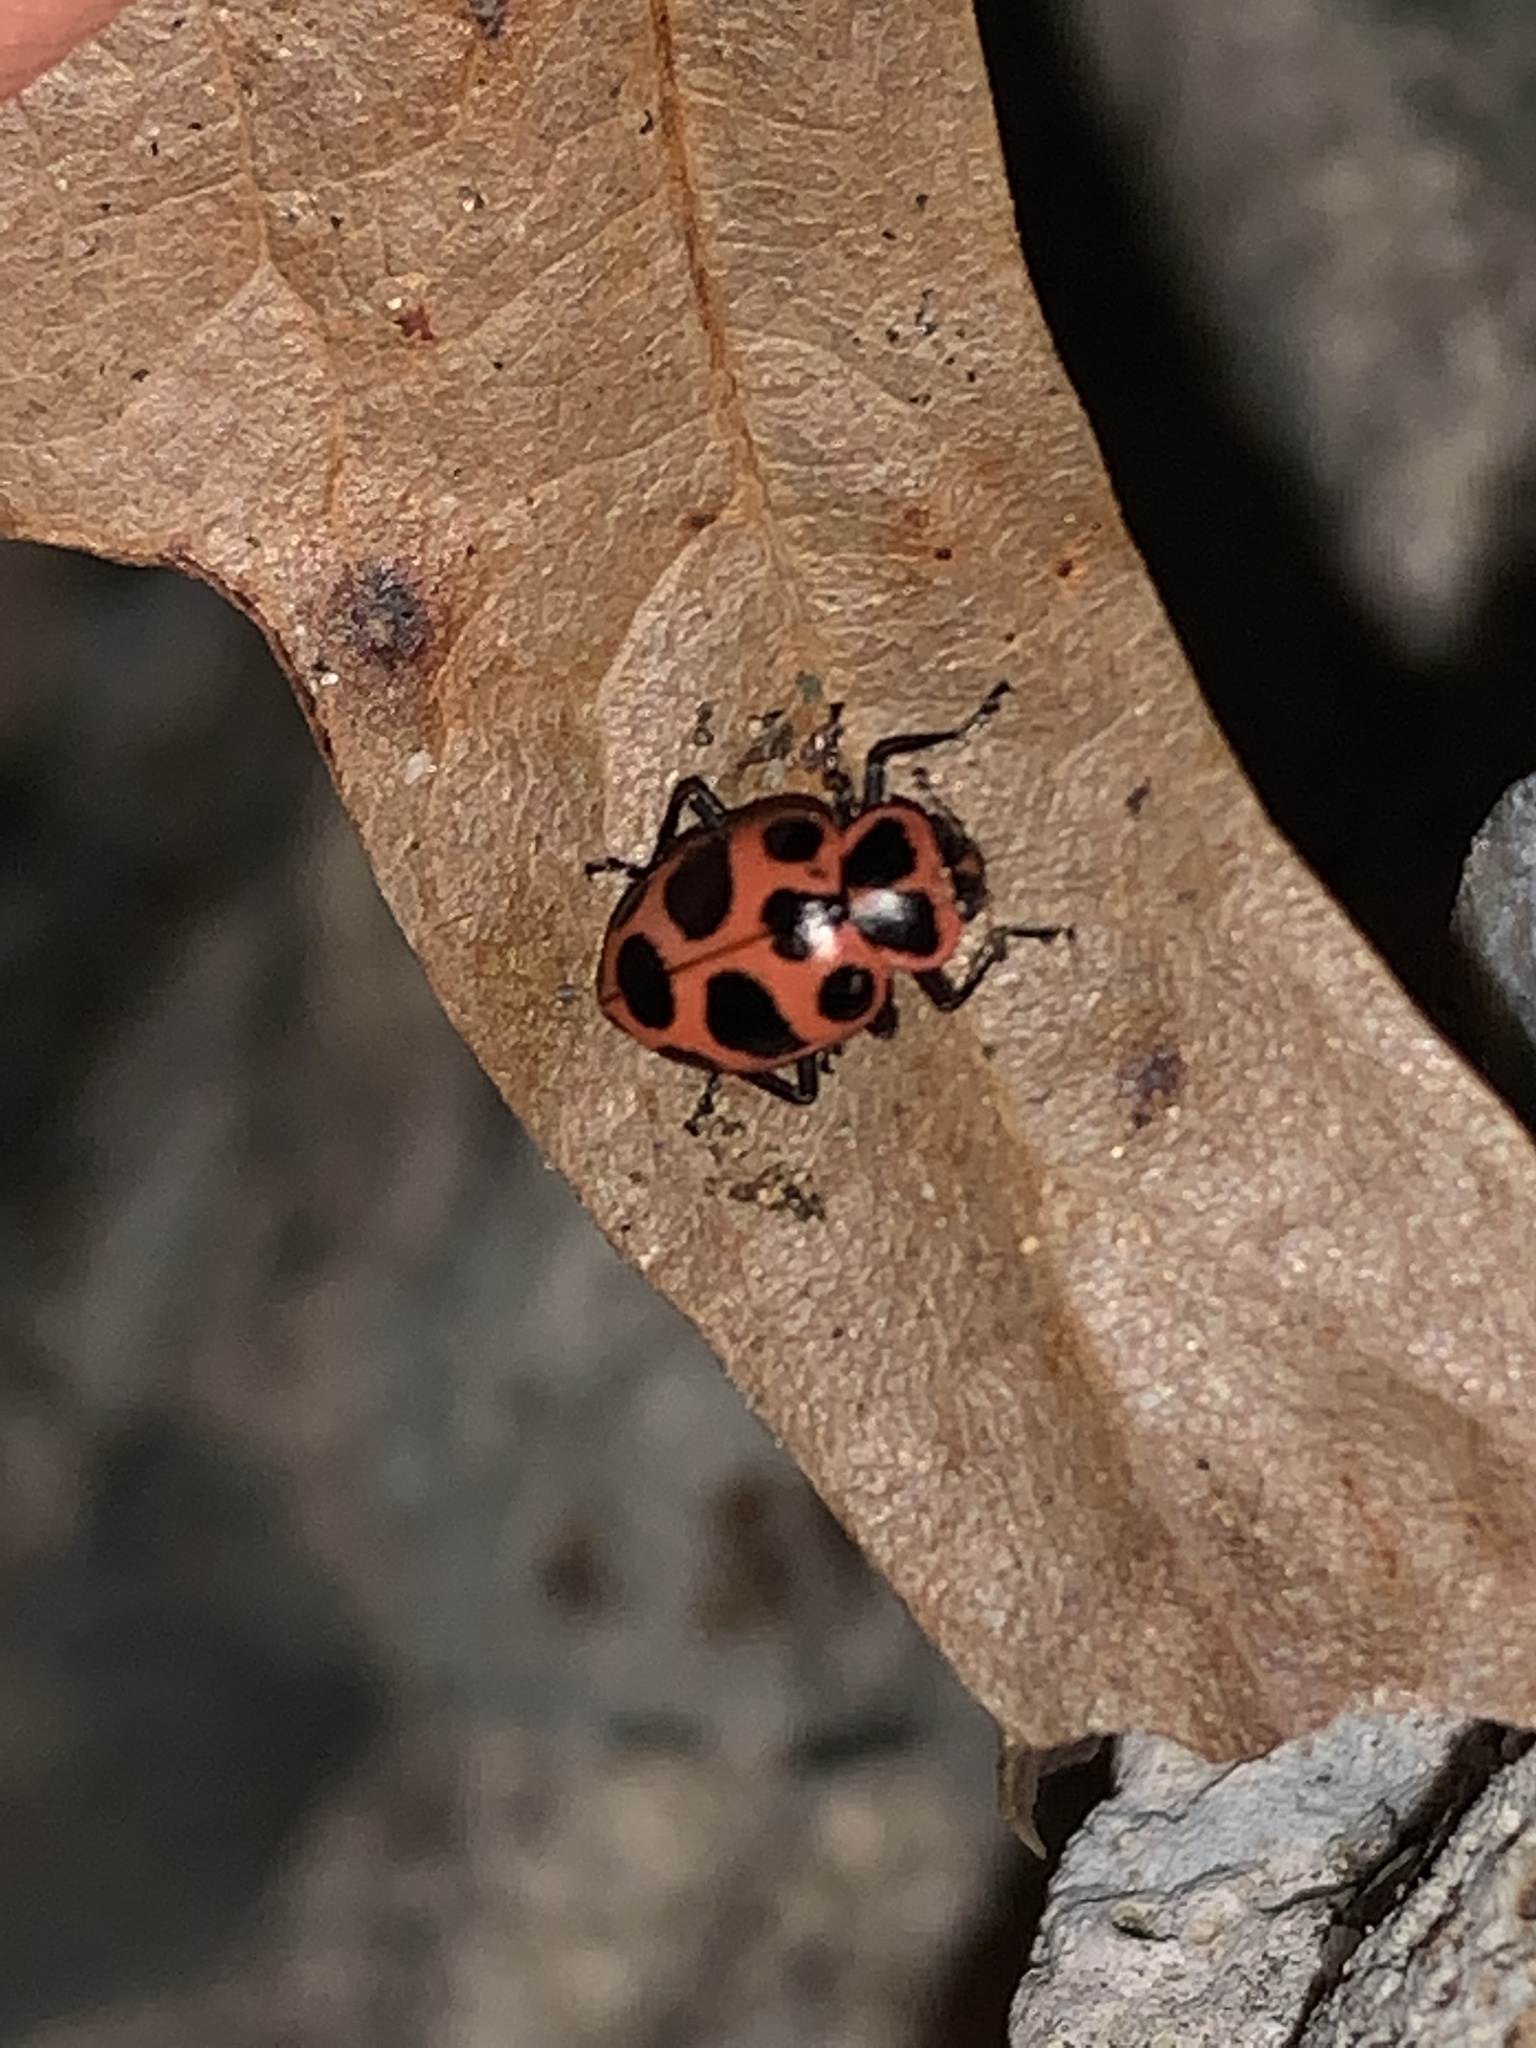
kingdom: Animalia
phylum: Arthropoda
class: Insecta
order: Coleoptera
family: Coccinellidae
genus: Coleomegilla
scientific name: Coleomegilla maculata
